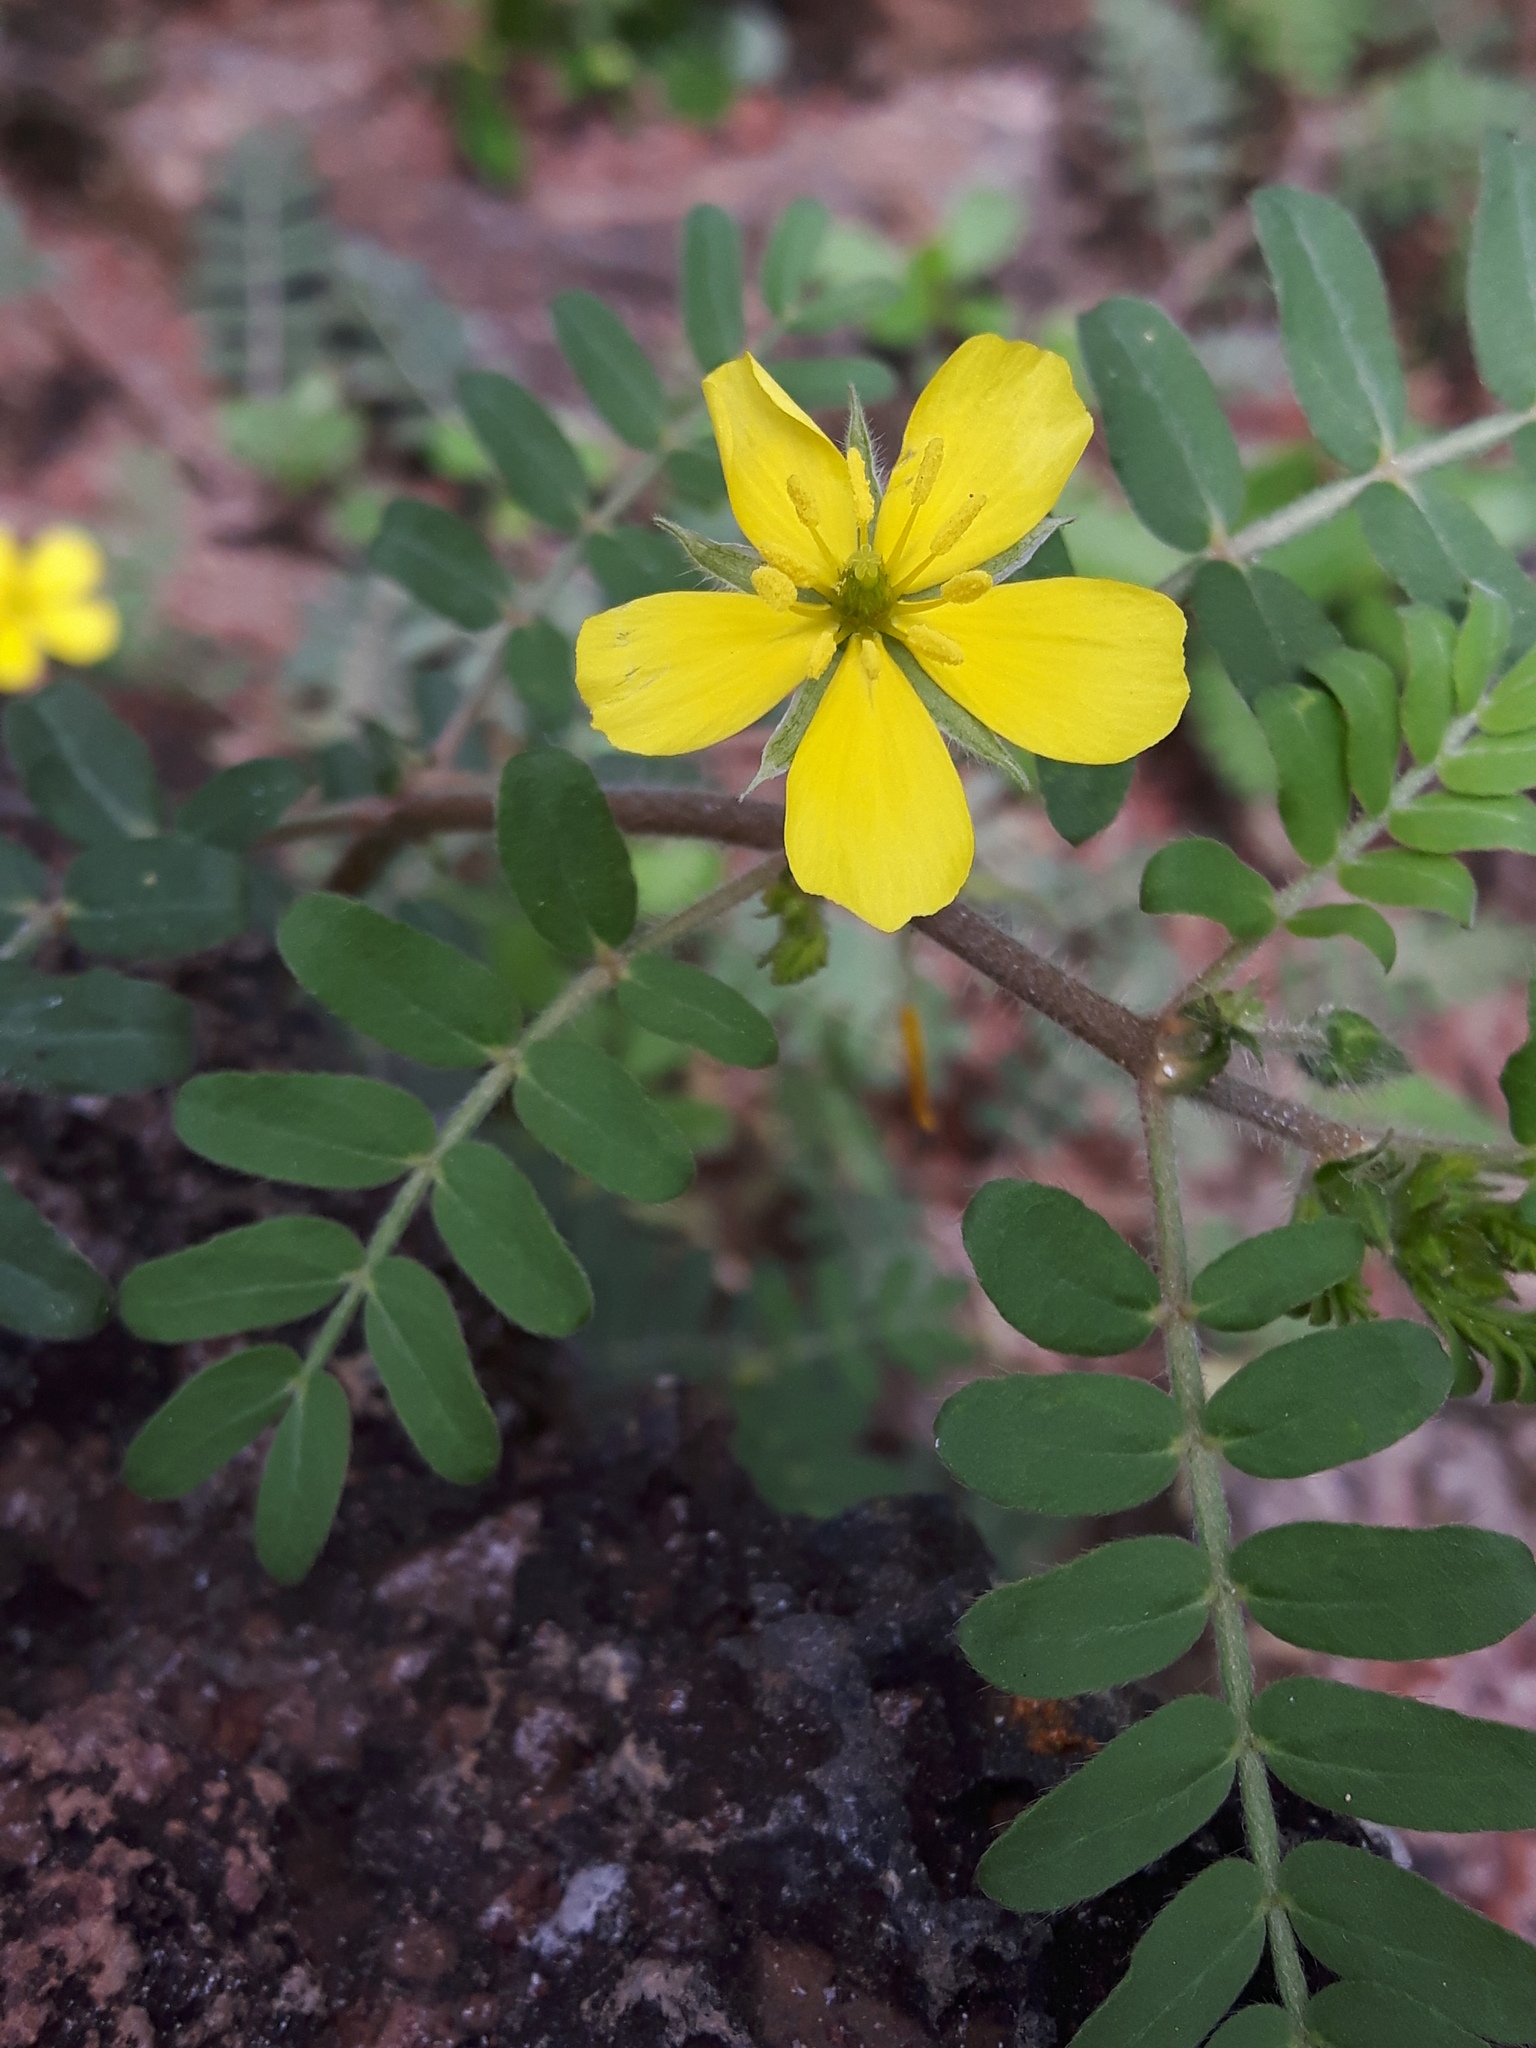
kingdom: Plantae
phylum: Tracheophyta
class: Magnoliopsida
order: Zygophyllales
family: Zygophyllaceae
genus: Tribulus
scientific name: Tribulus cistoides
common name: Jamaican feverplant
